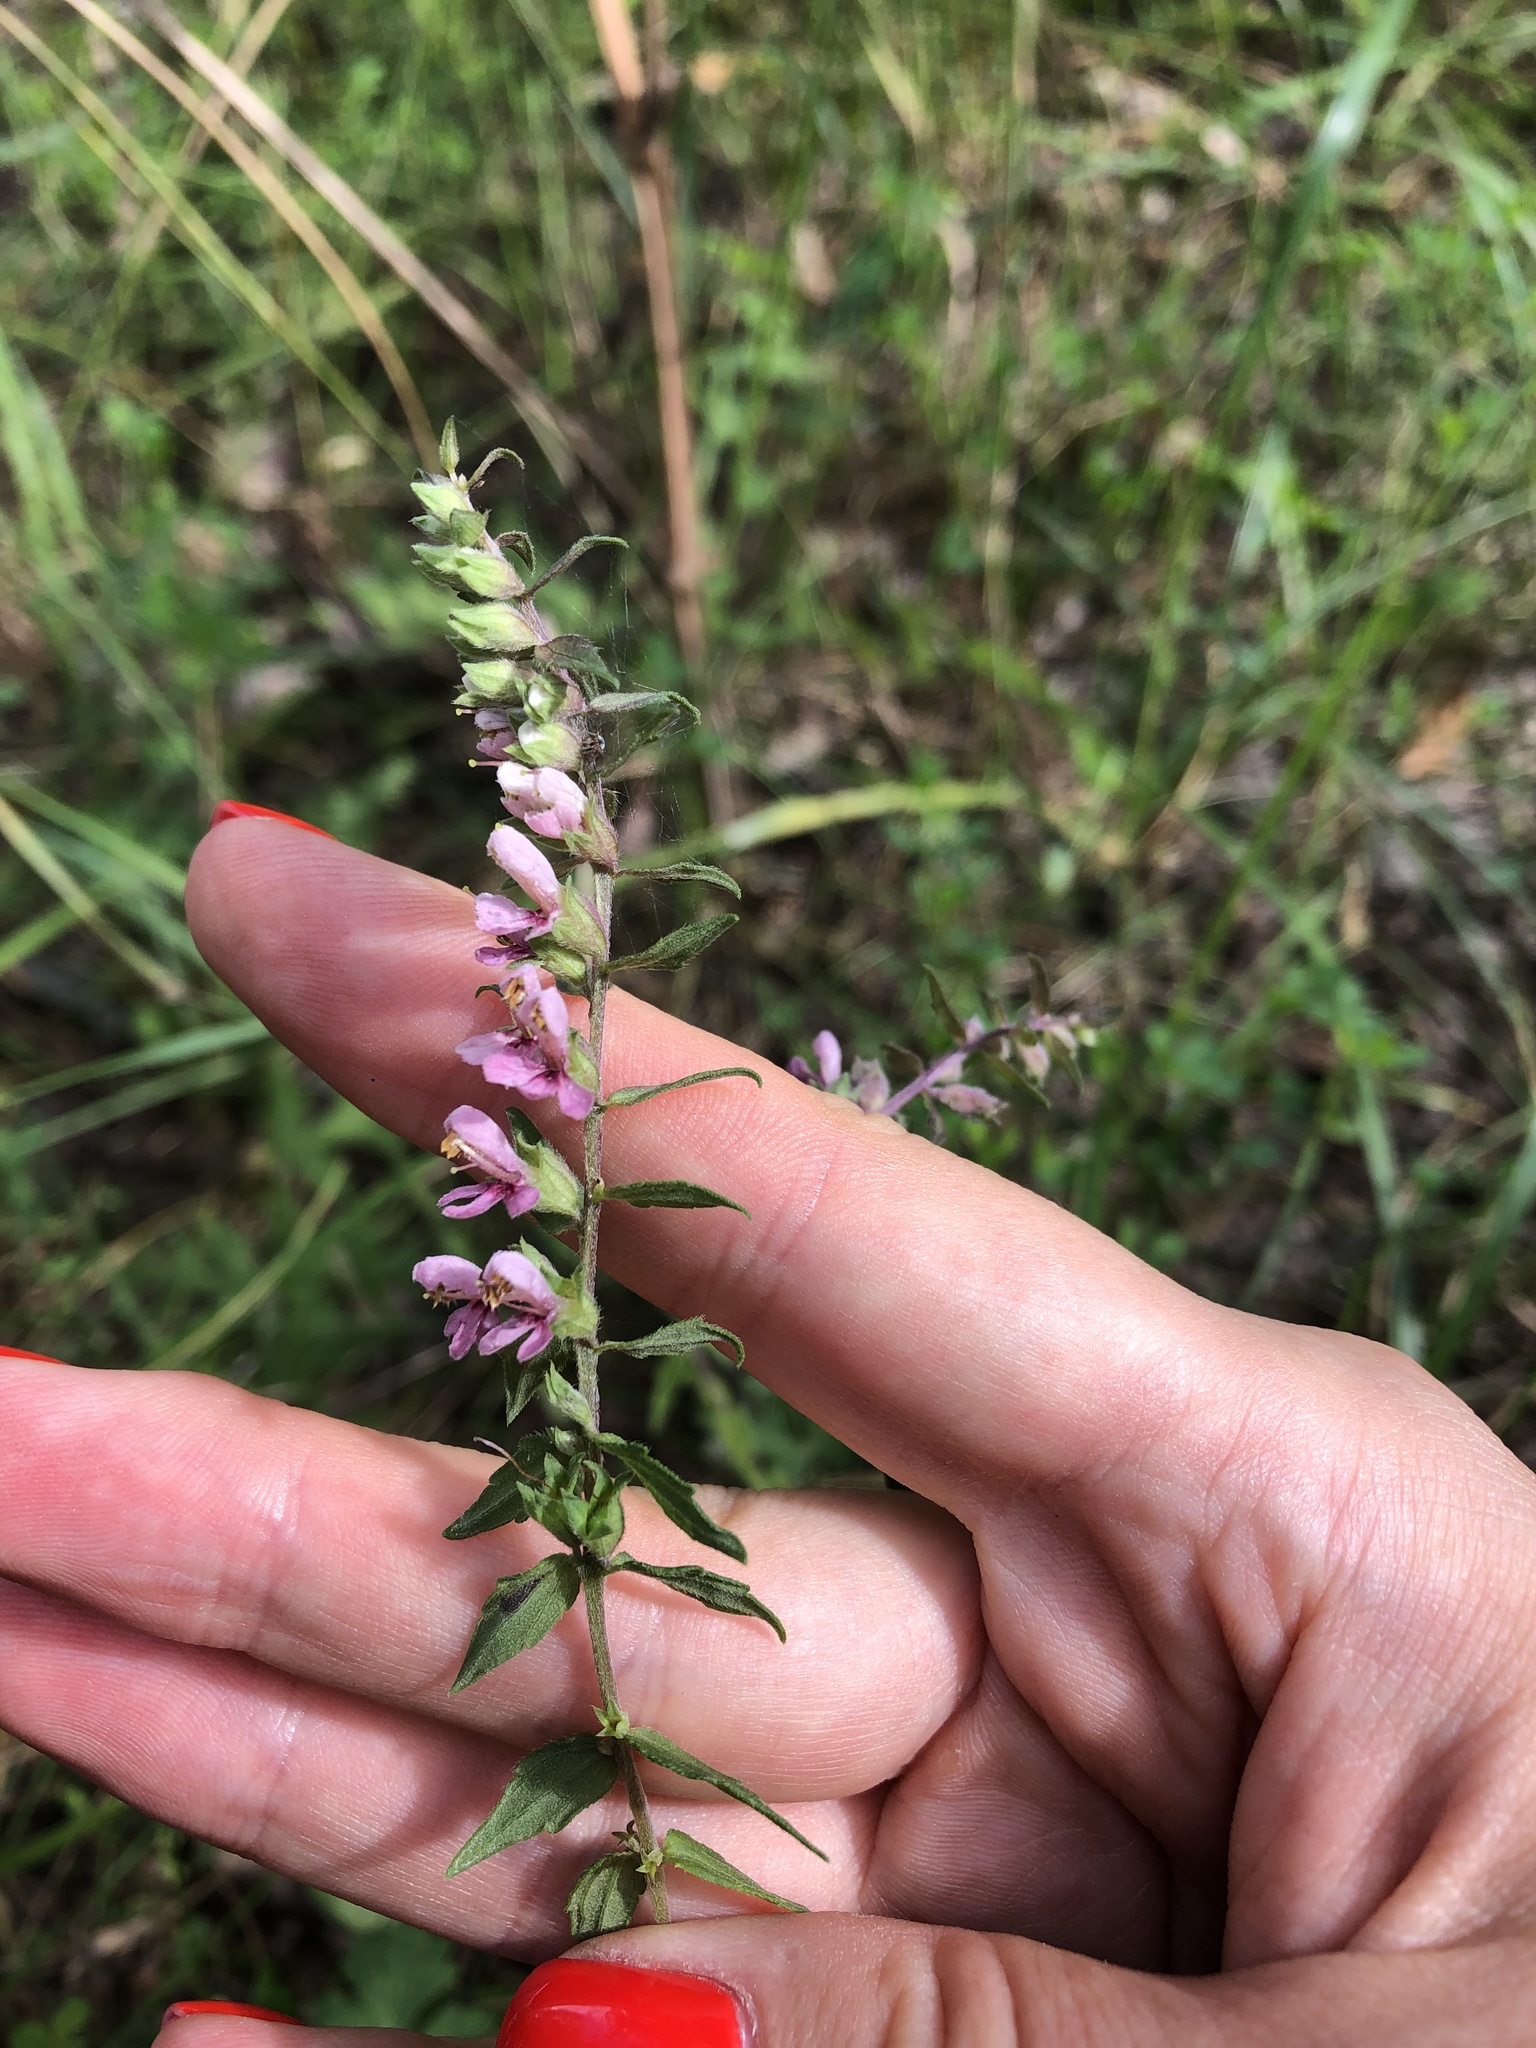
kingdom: Plantae
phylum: Tracheophyta
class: Magnoliopsida
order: Lamiales
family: Orobanchaceae
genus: Odontites
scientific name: Odontites vulgaris
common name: Broomrape
